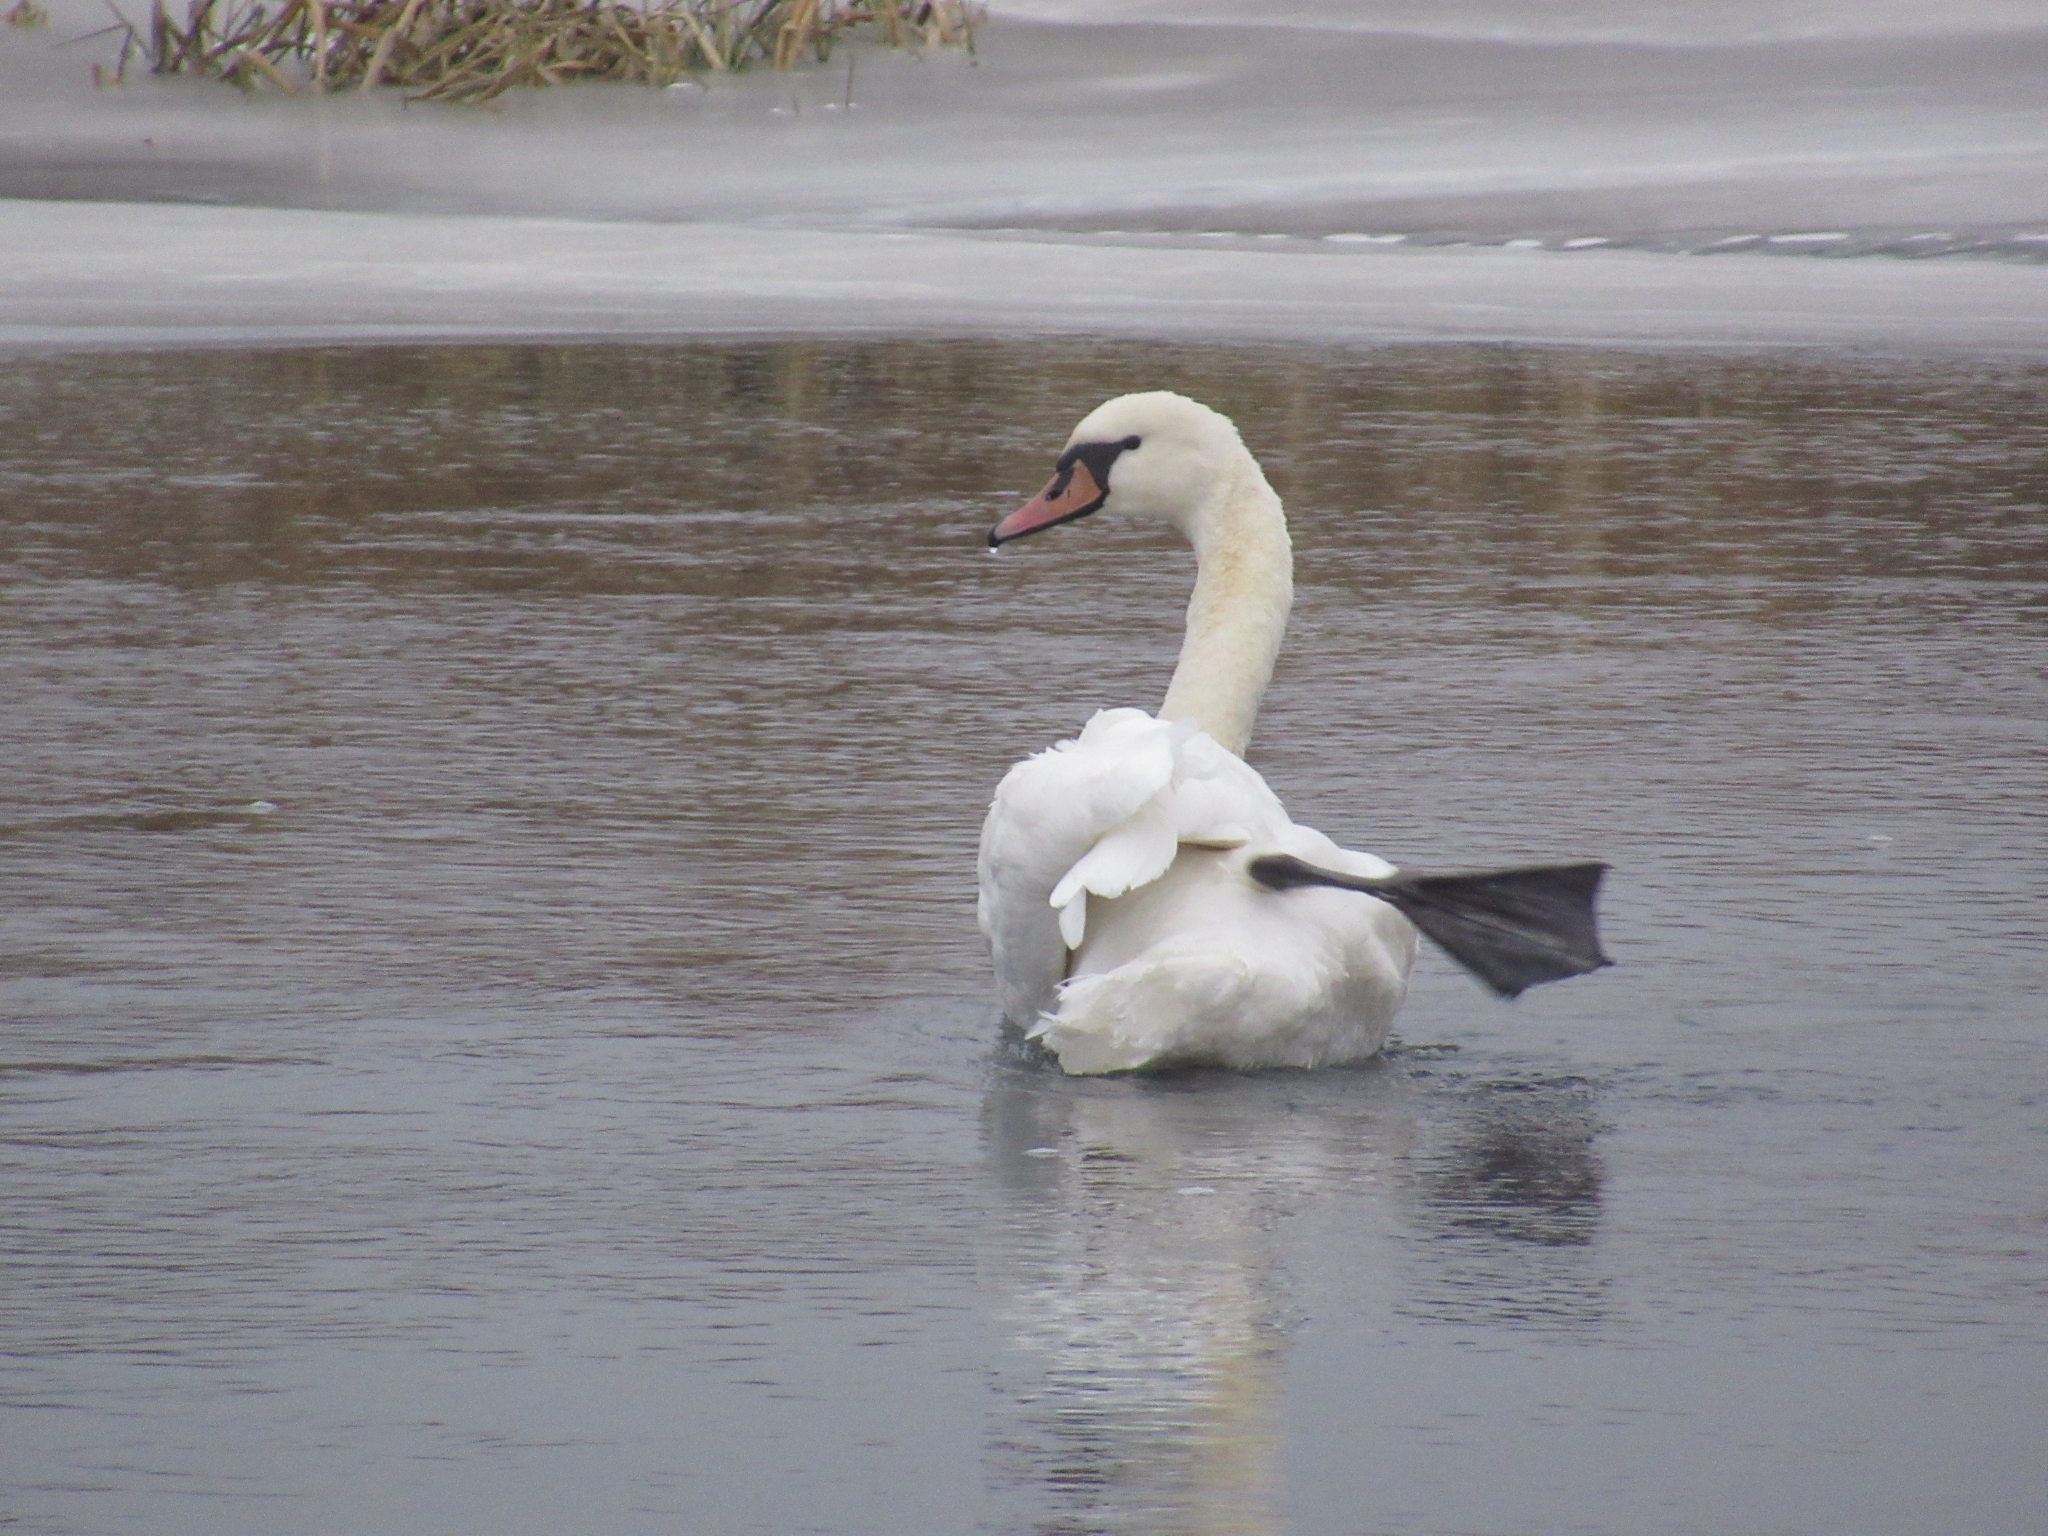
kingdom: Animalia
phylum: Chordata
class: Aves
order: Anseriformes
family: Anatidae
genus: Cygnus
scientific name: Cygnus olor
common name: Mute swan
